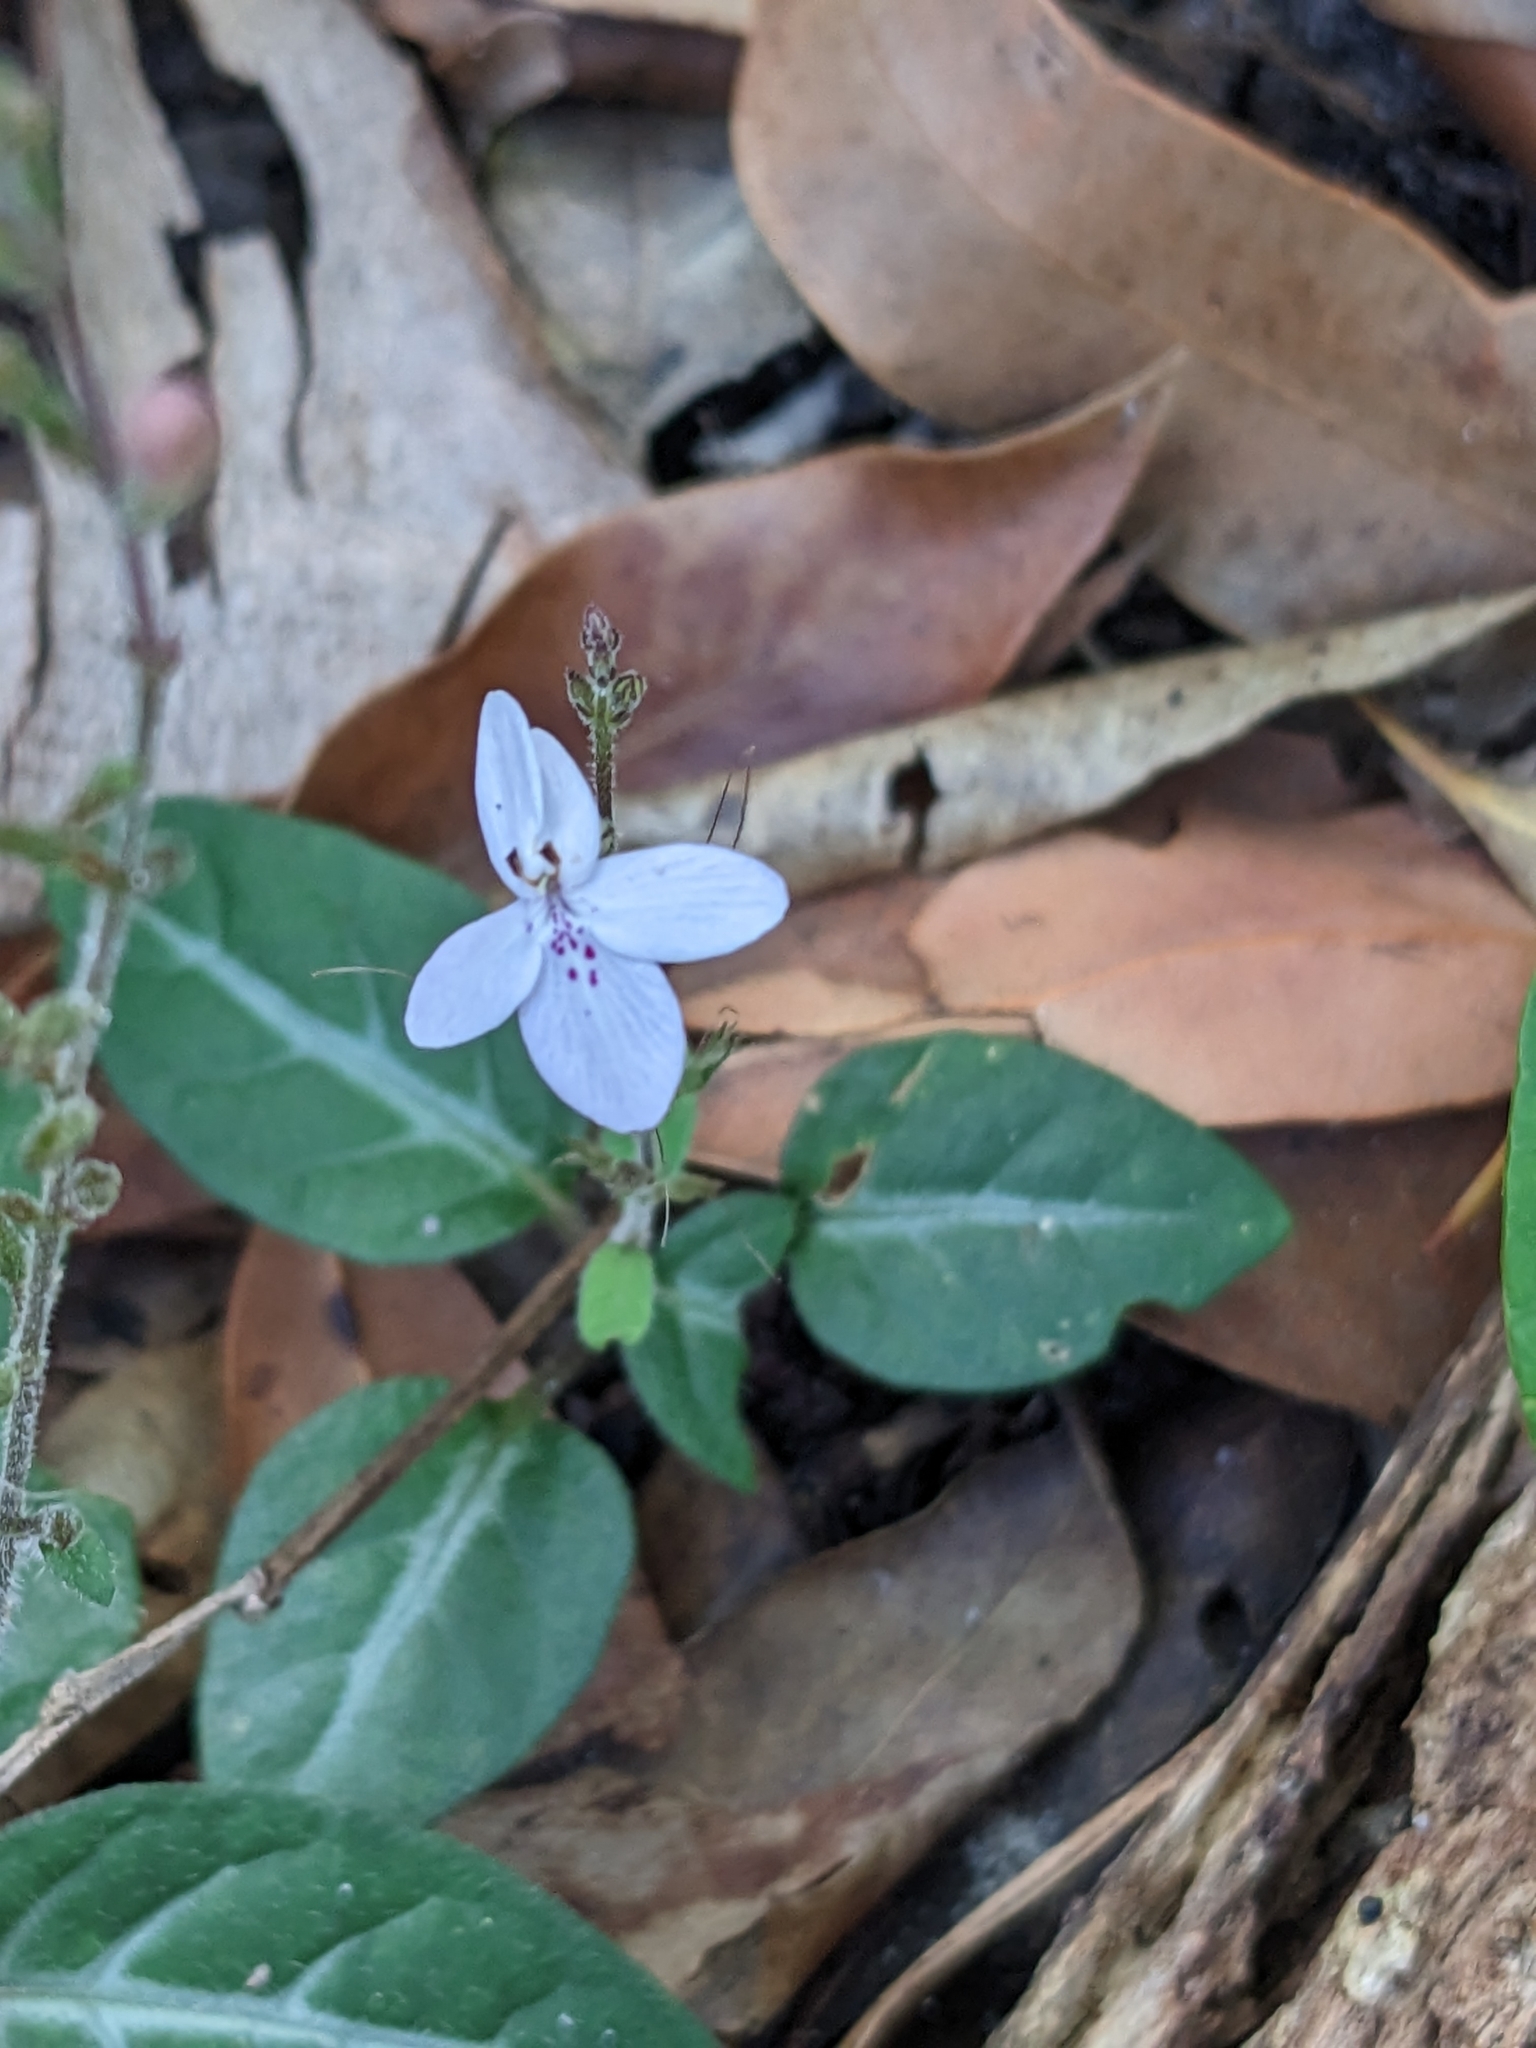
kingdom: Plantae
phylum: Tracheophyta
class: Magnoliopsida
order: Lamiales
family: Acanthaceae
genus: Pseuderanthemum
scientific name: Pseuderanthemum variabile
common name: Night and afternoon
